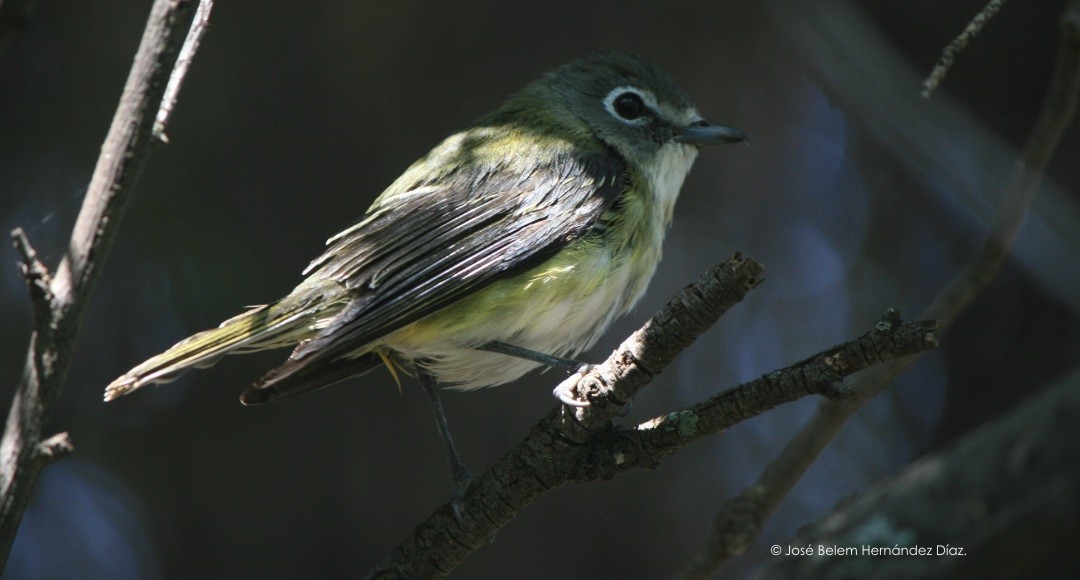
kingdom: Animalia
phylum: Chordata
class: Aves
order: Passeriformes
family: Vireonidae
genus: Vireo
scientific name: Vireo solitarius
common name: Blue-headed vireo
